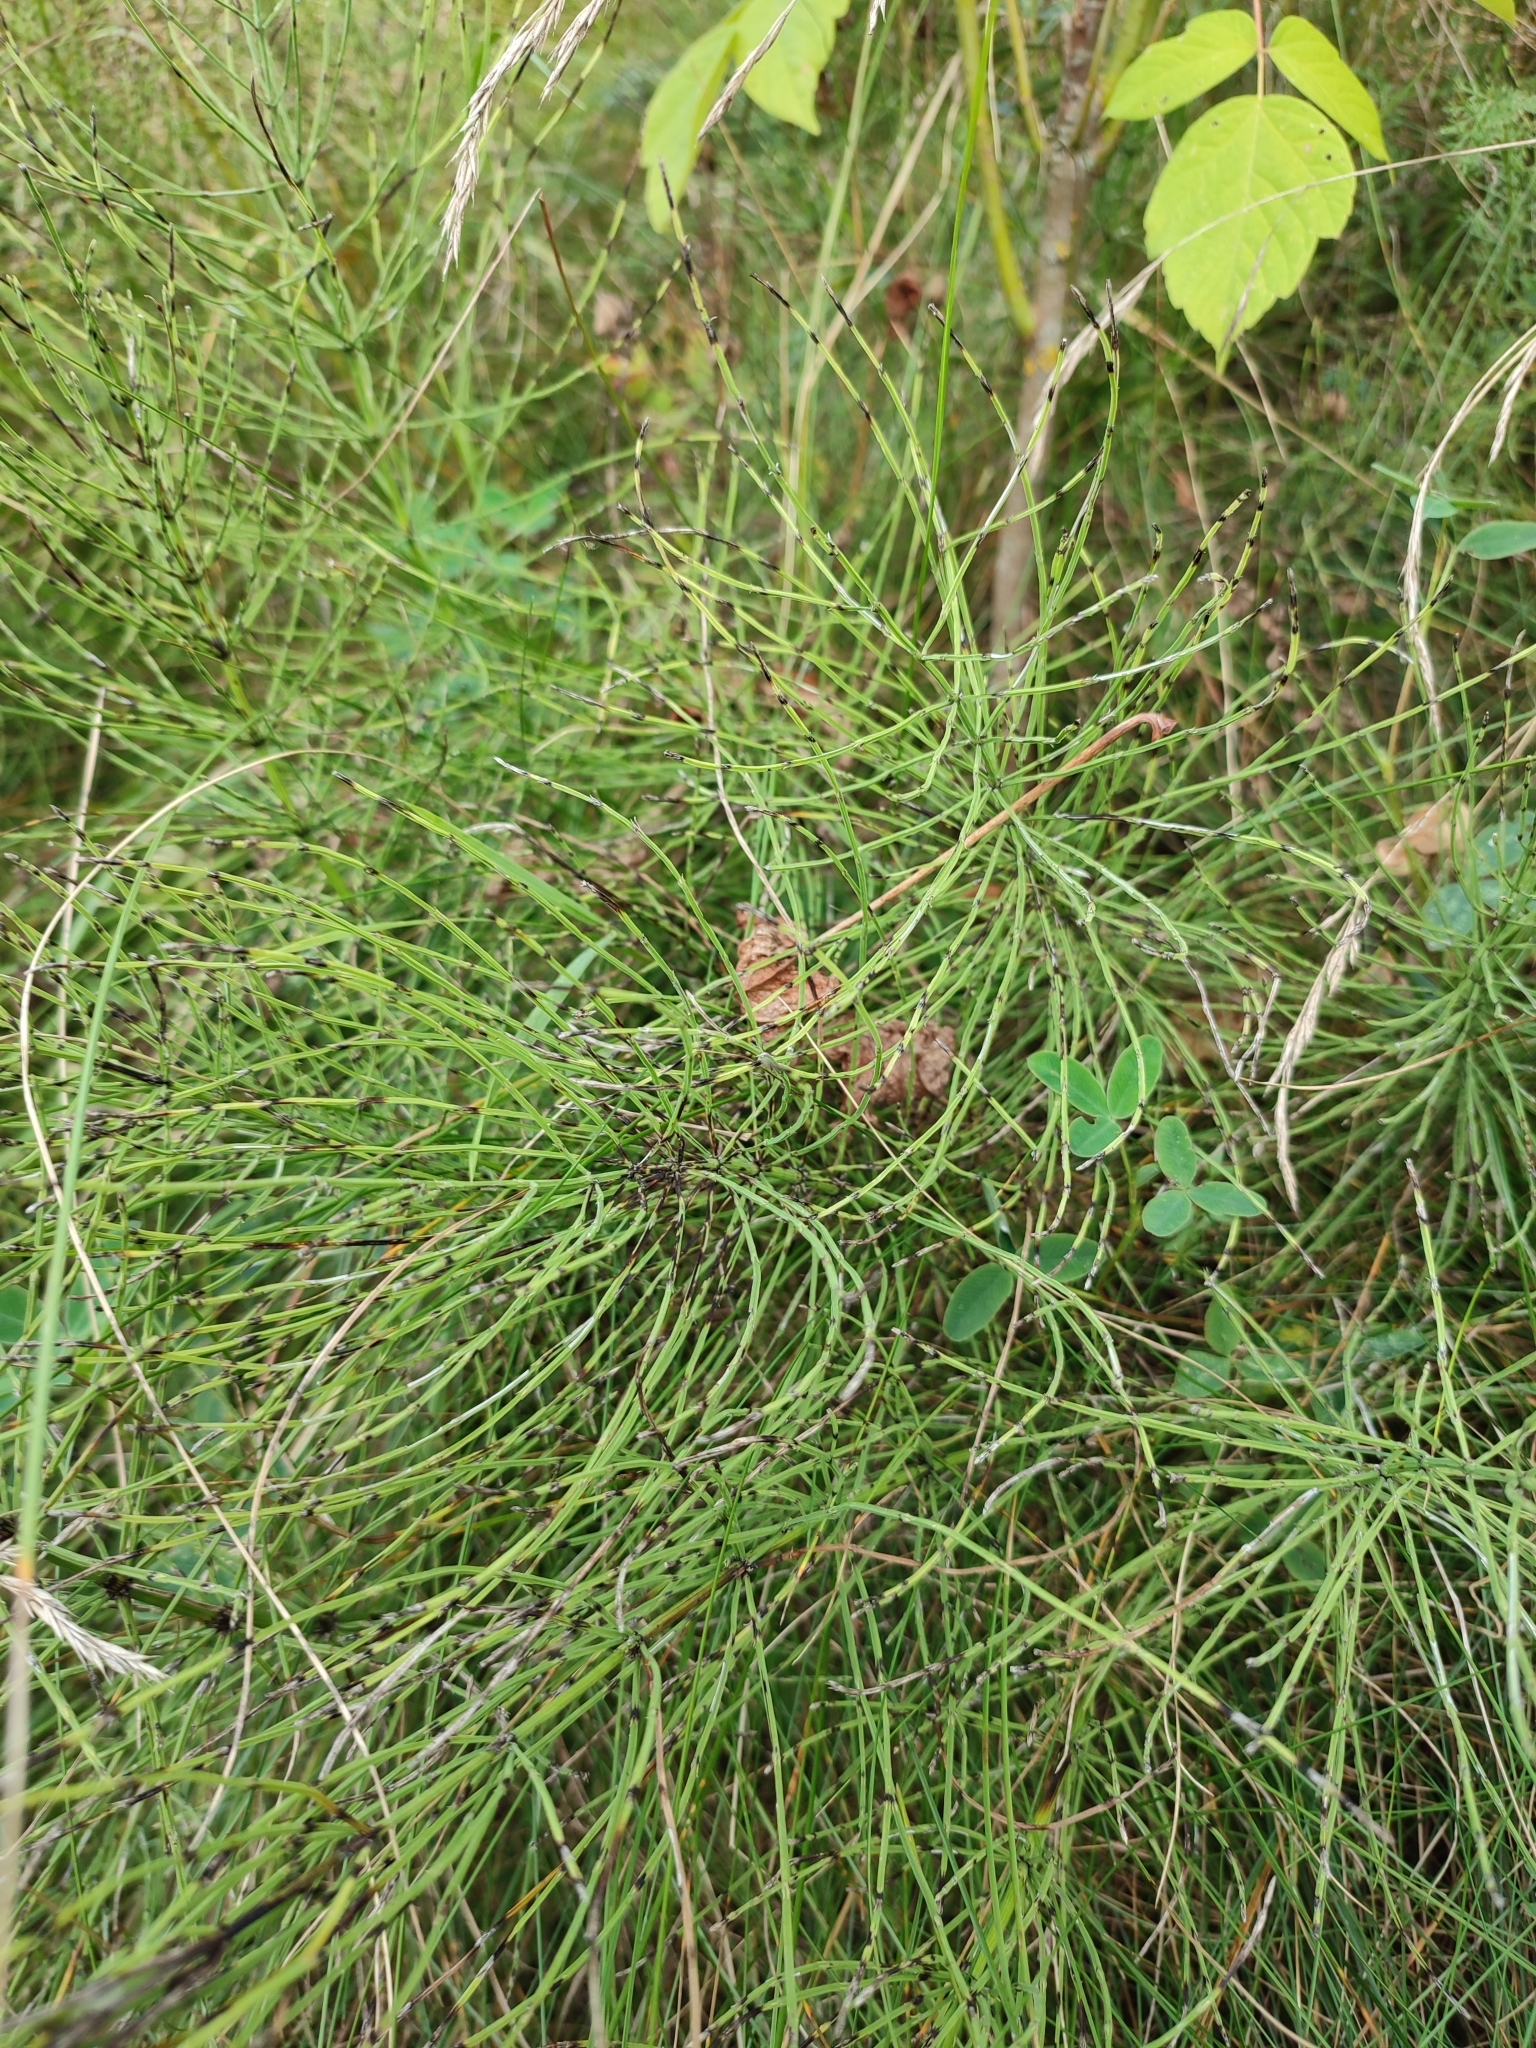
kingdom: Plantae
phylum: Tracheophyta
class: Polypodiopsida
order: Equisetales
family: Equisetaceae
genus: Equisetum
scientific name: Equisetum arvense
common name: Field horsetail
